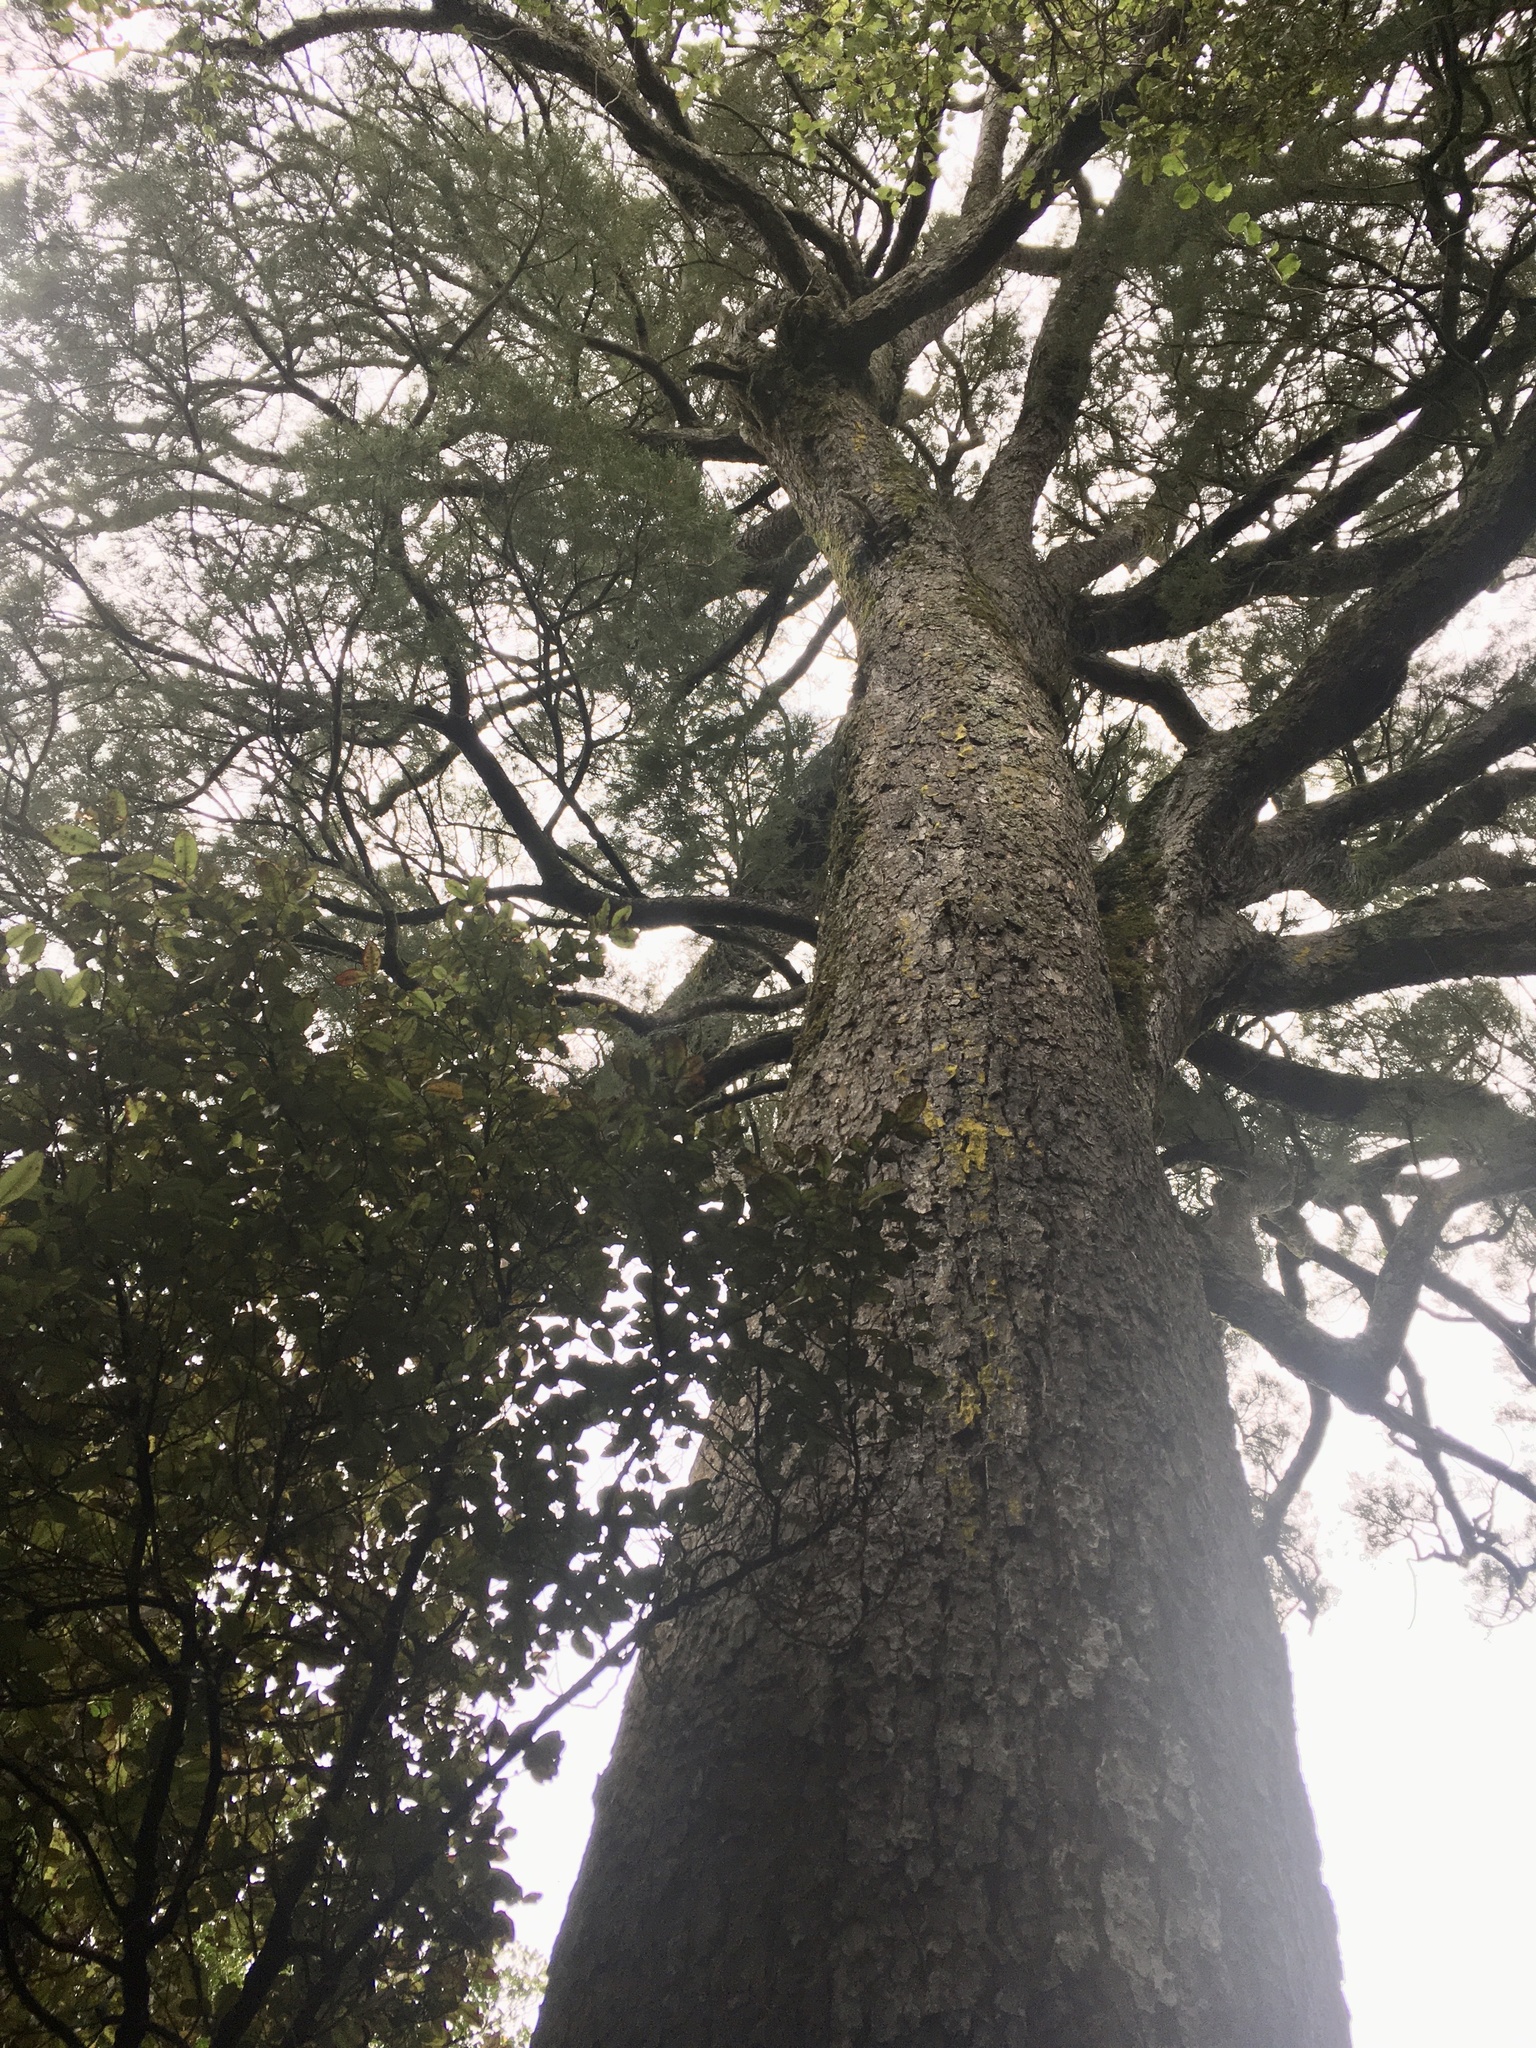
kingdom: Plantae
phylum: Tracheophyta
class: Pinopsida
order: Pinales
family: Podocarpaceae
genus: Dacrycarpus
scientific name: Dacrycarpus dacrydioides
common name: White pine
